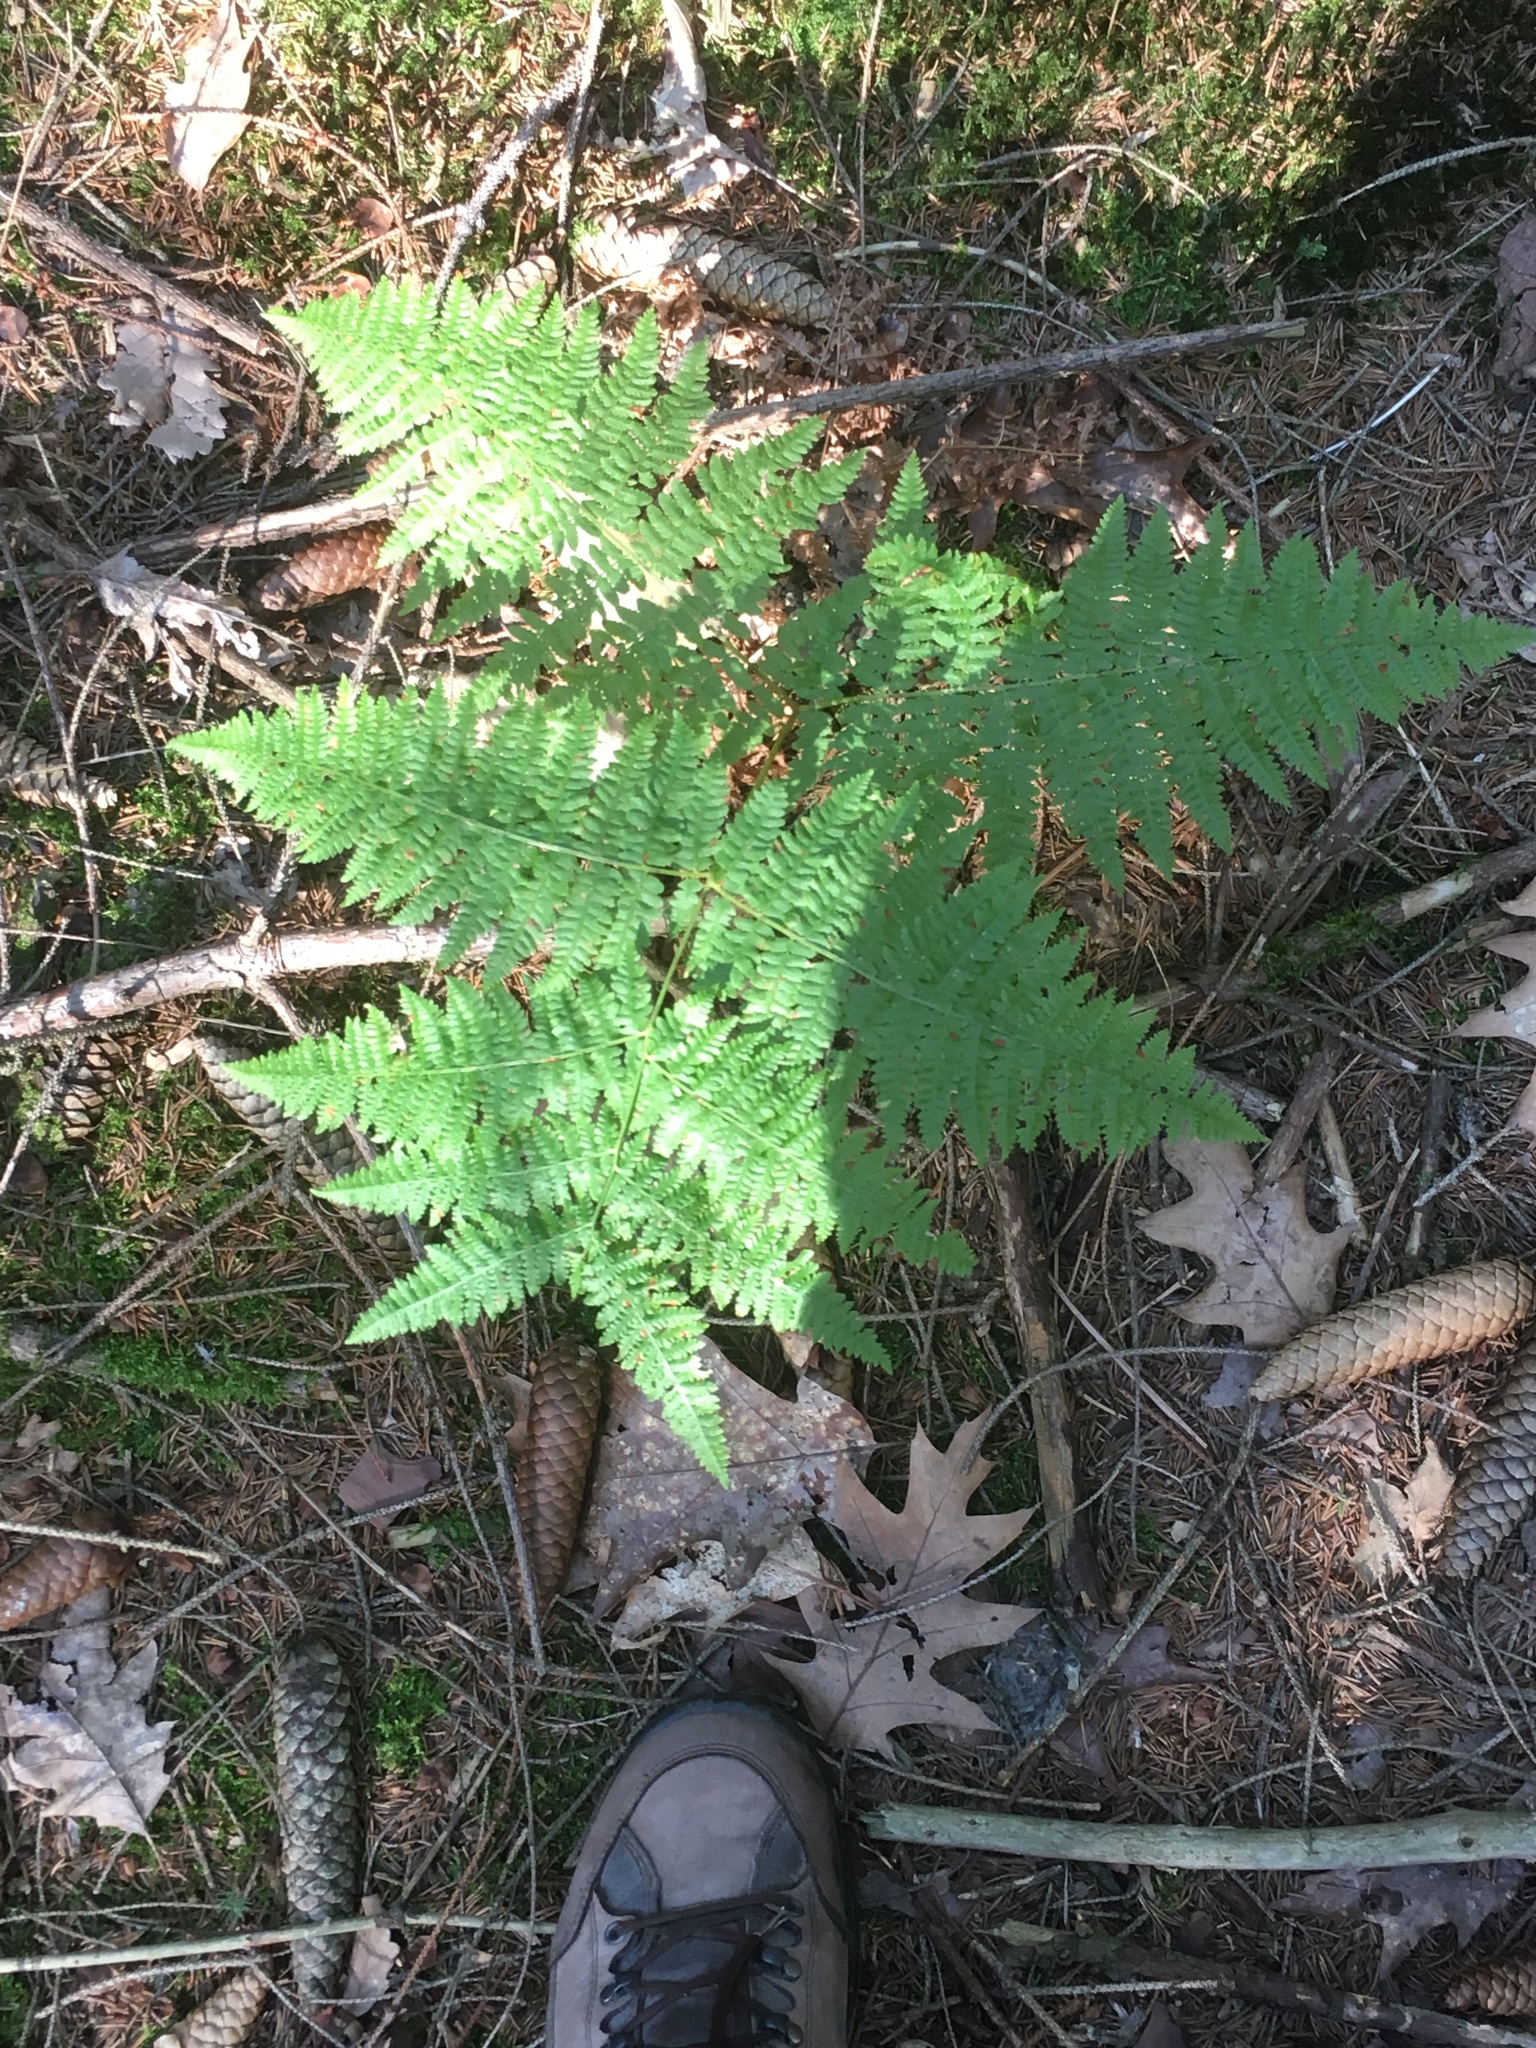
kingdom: Plantae
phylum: Tracheophyta
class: Polypodiopsida
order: Polypodiales
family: Dennstaedtiaceae
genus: Pteridium
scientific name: Pteridium aquilinum
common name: Bracken
